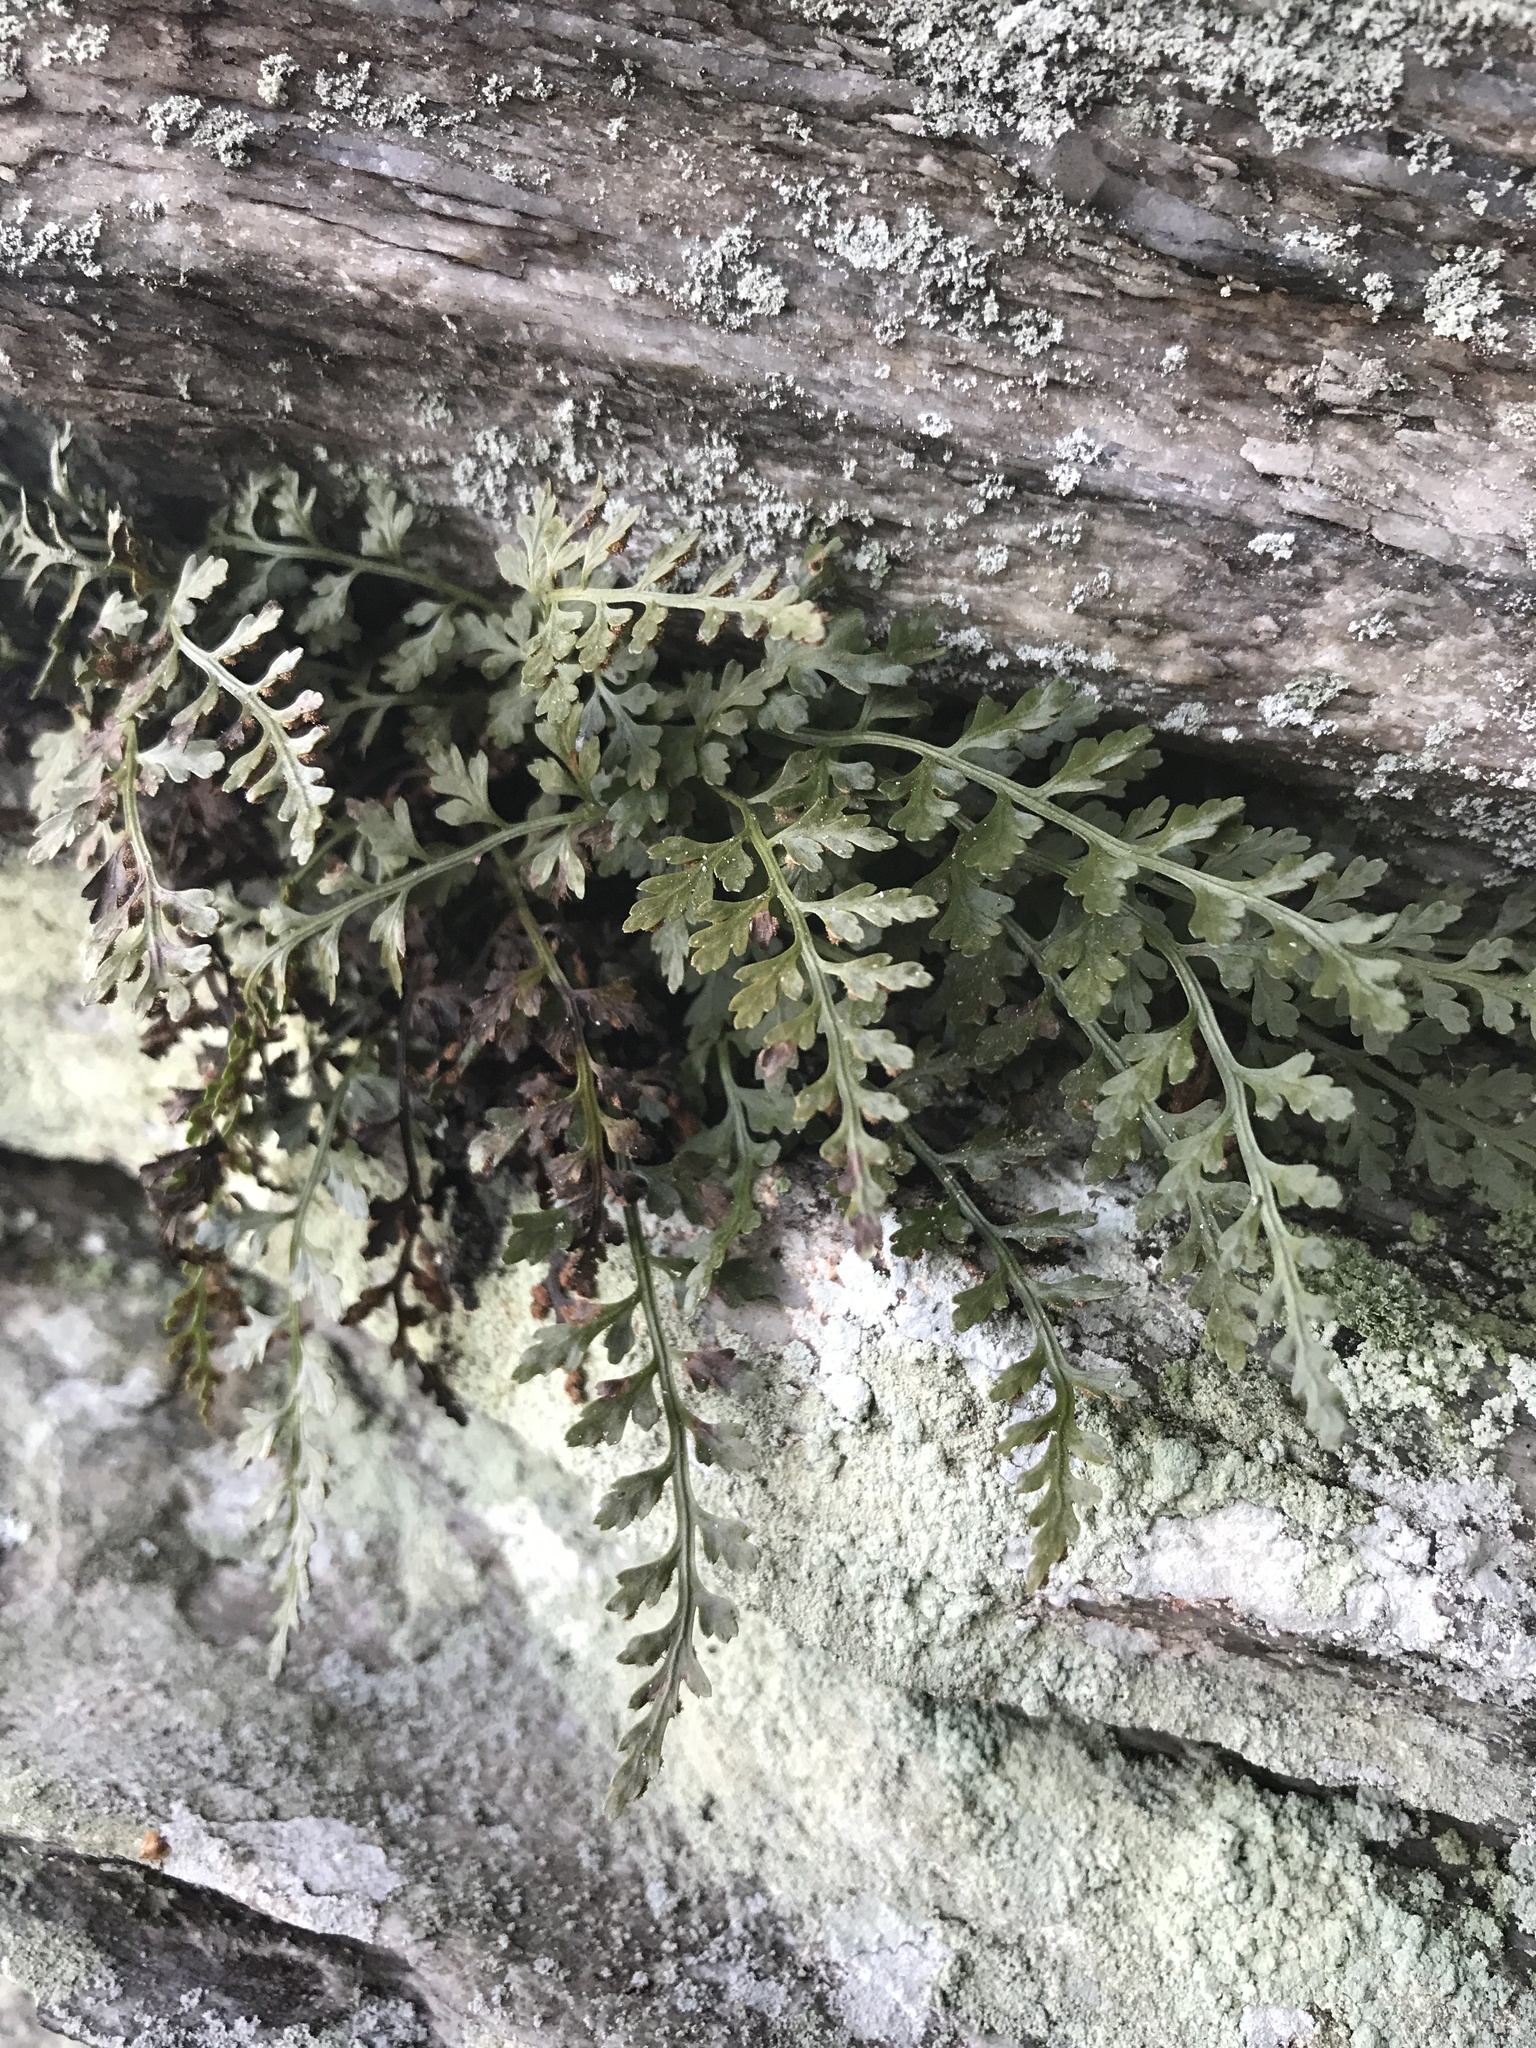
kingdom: Plantae
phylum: Tracheophyta
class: Polypodiopsida
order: Polypodiales
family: Aspleniaceae
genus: Asplenium
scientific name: Asplenium montanum
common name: Mountain spleenwort
